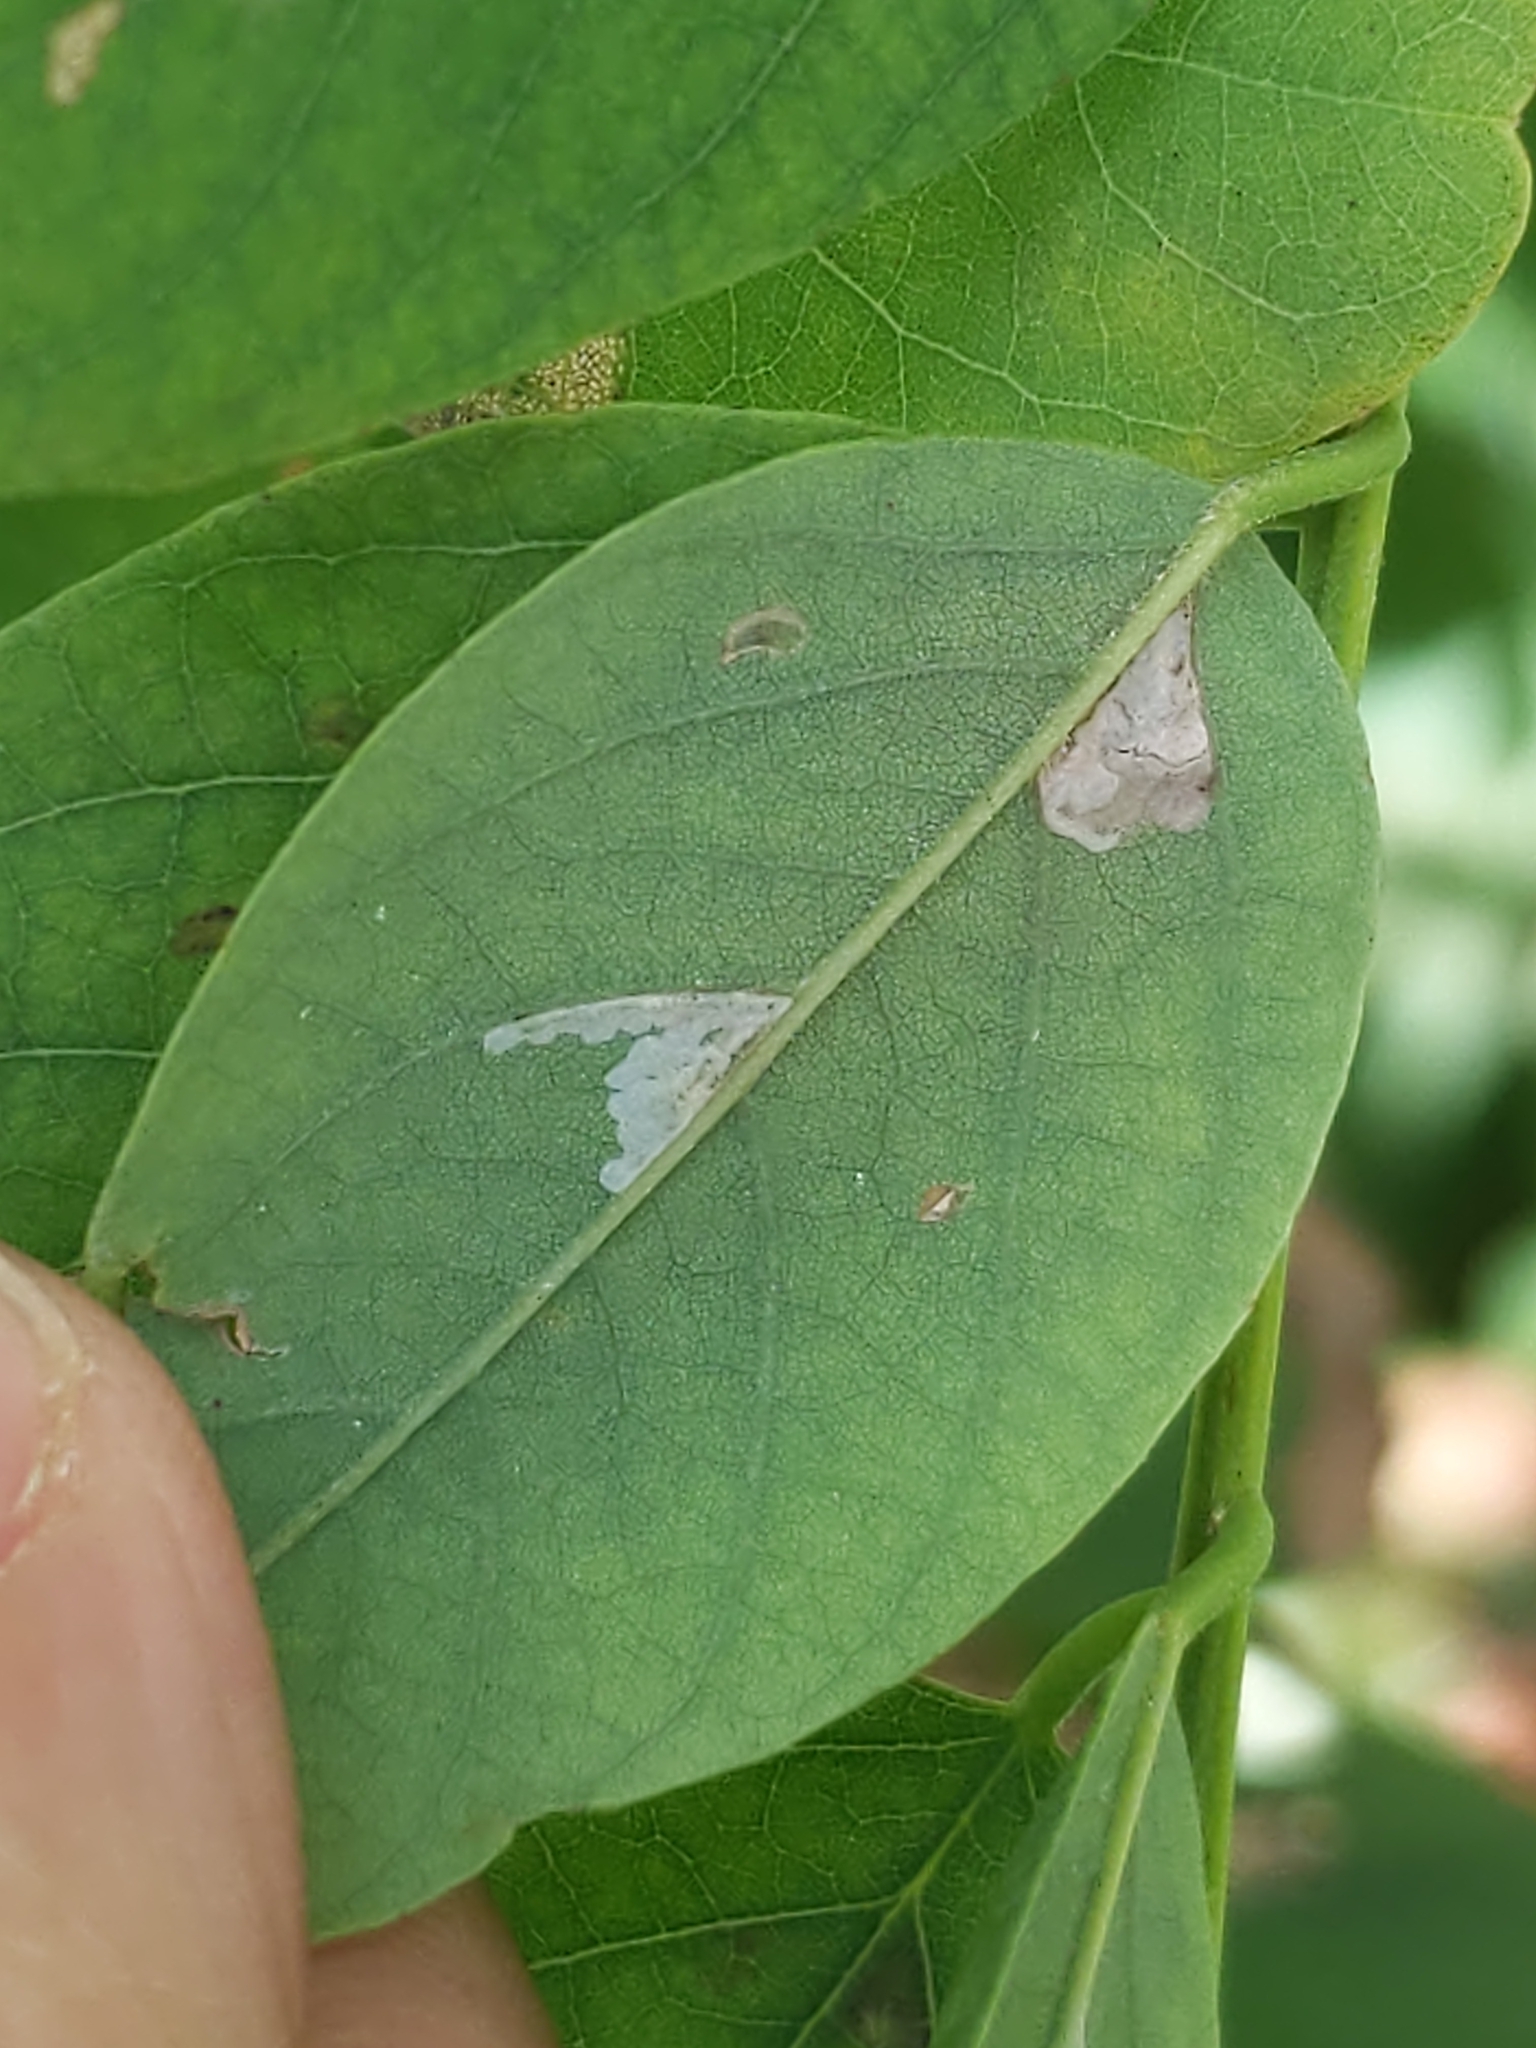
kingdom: Animalia
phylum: Arthropoda
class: Insecta
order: Lepidoptera
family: Gracillariidae
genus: Parectopa
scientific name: Parectopa robiniella
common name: Locust digitate leafminer
